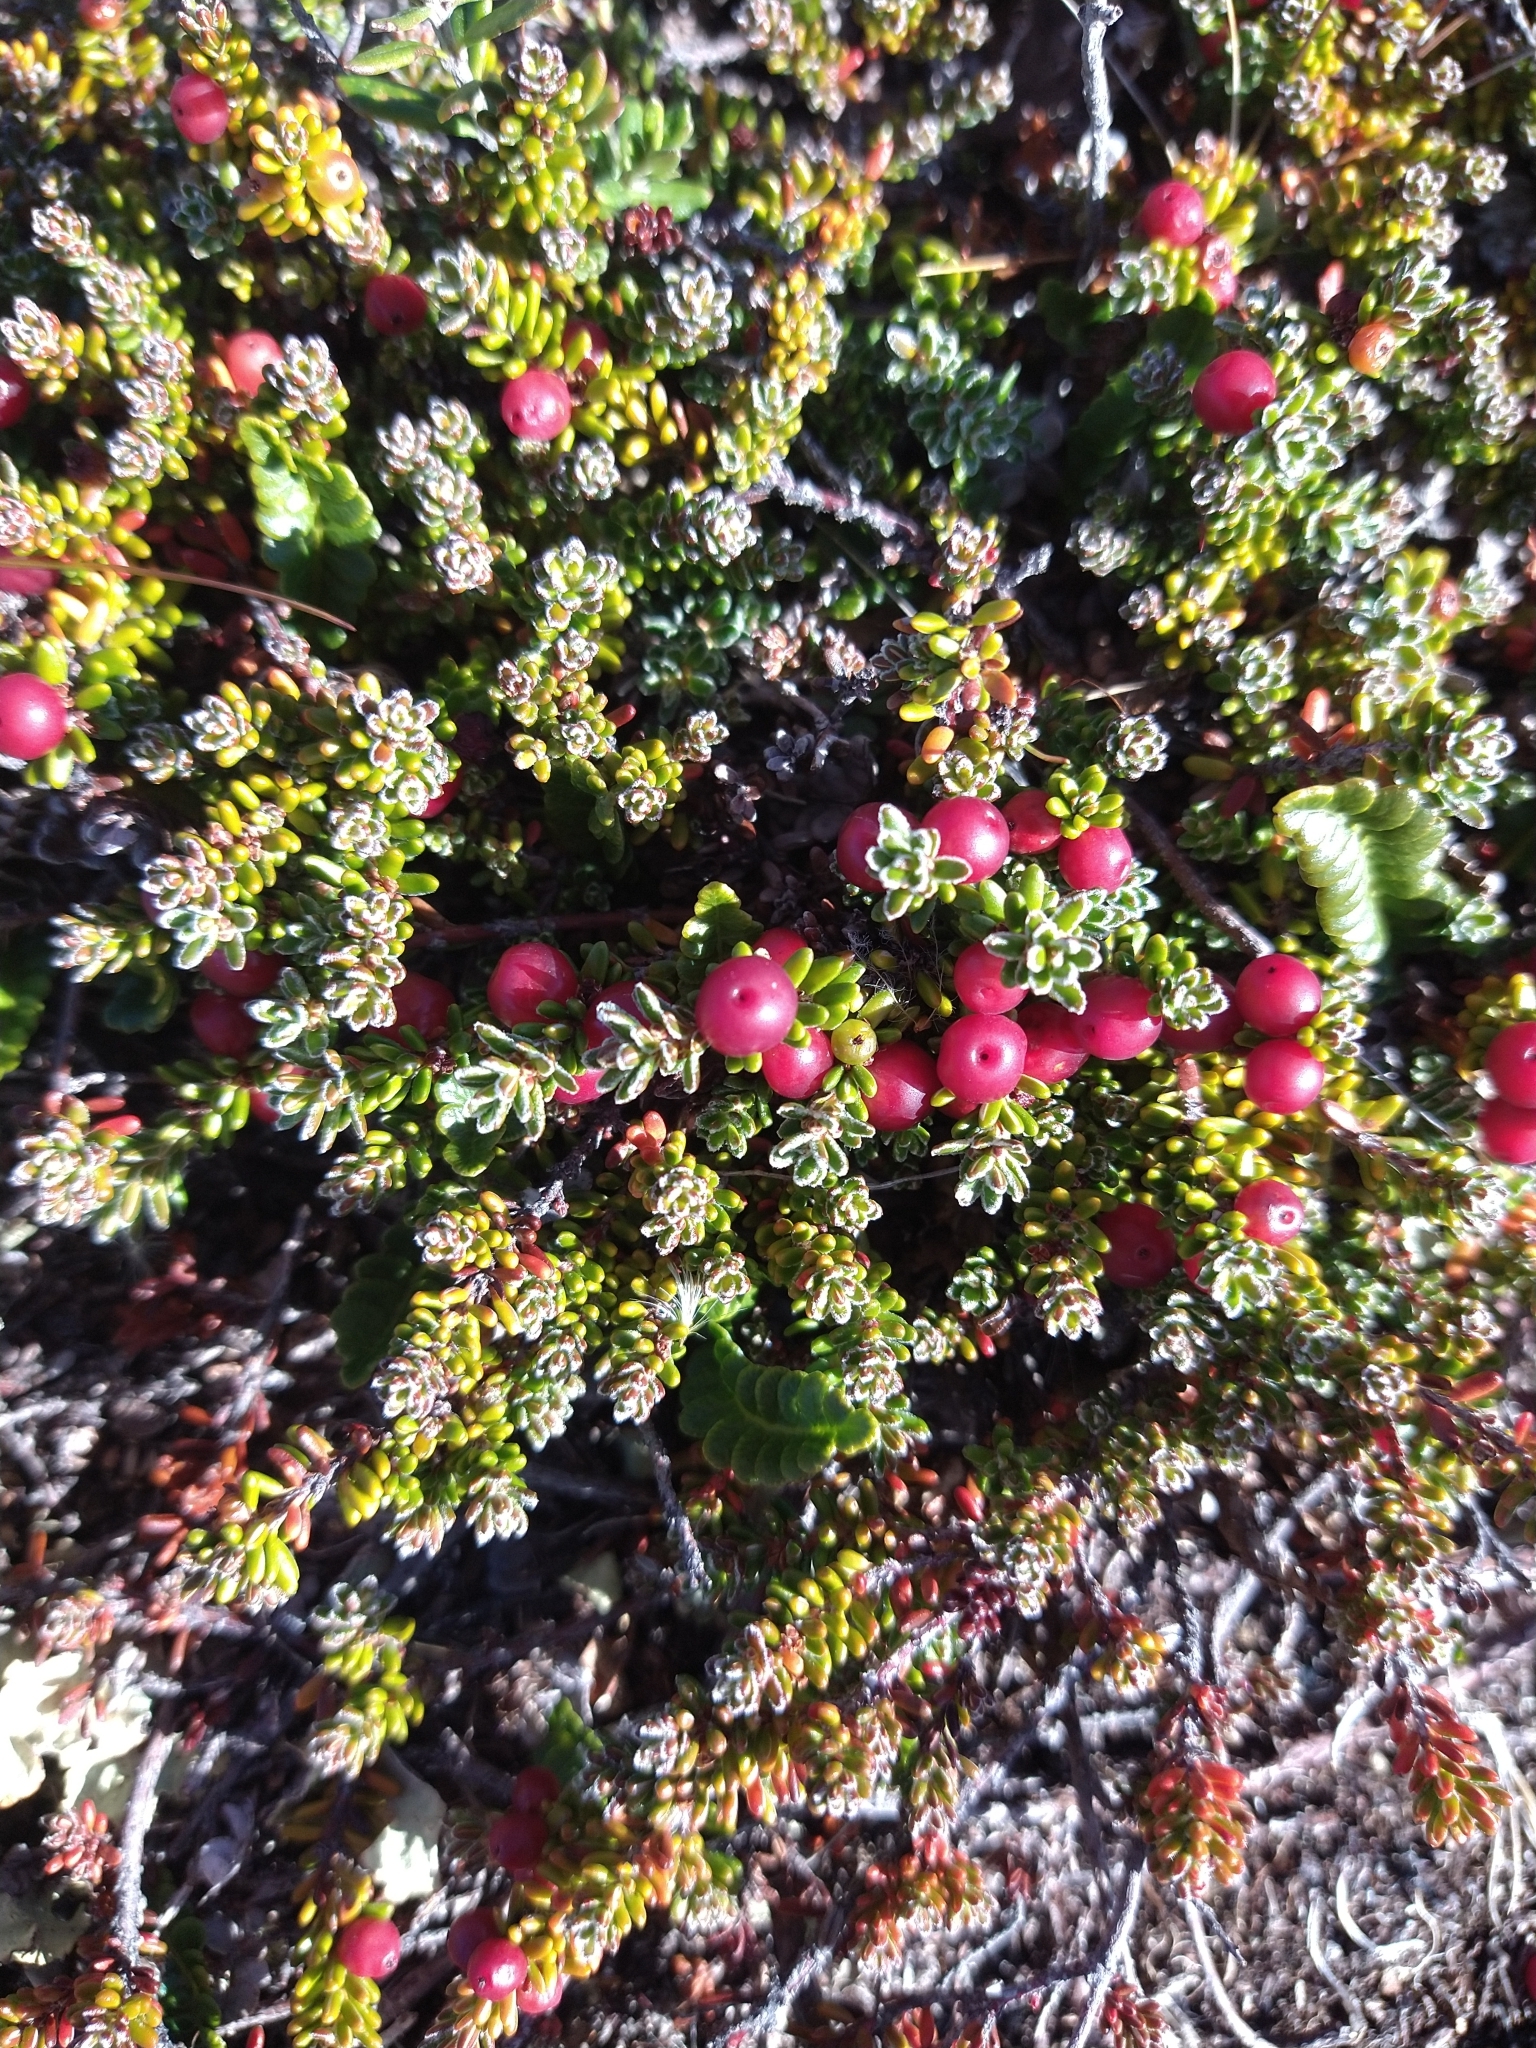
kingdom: Plantae
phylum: Tracheophyta
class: Magnoliopsida
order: Ericales
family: Ericaceae
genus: Empetrum
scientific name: Empetrum rubrum
